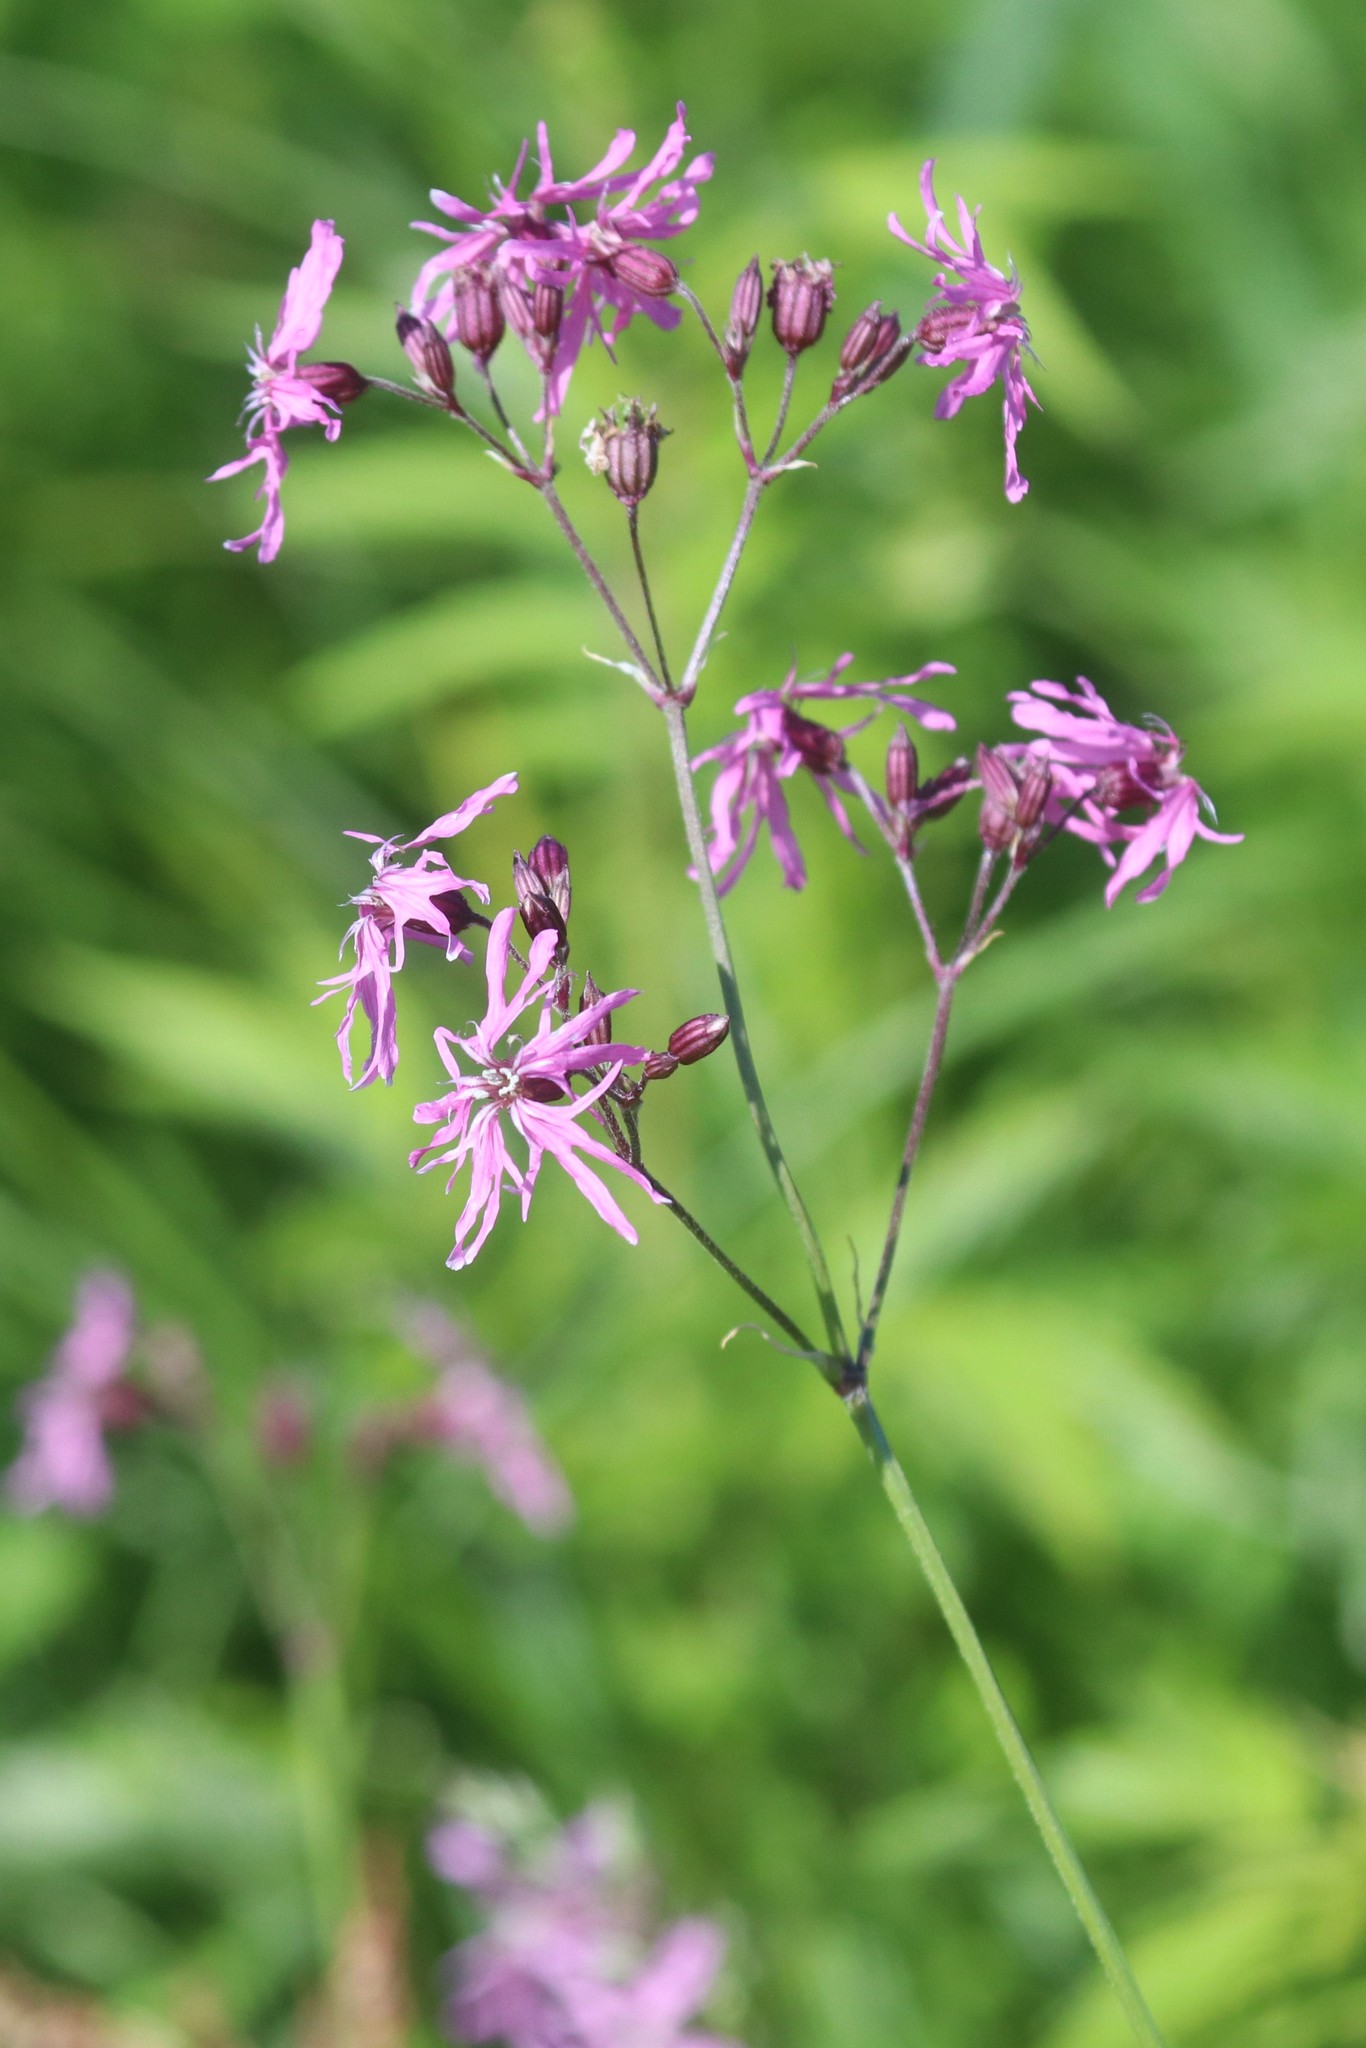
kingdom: Plantae
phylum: Tracheophyta
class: Magnoliopsida
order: Caryophyllales
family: Caryophyllaceae
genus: Silene
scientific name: Silene flos-cuculi
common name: Ragged-robin
